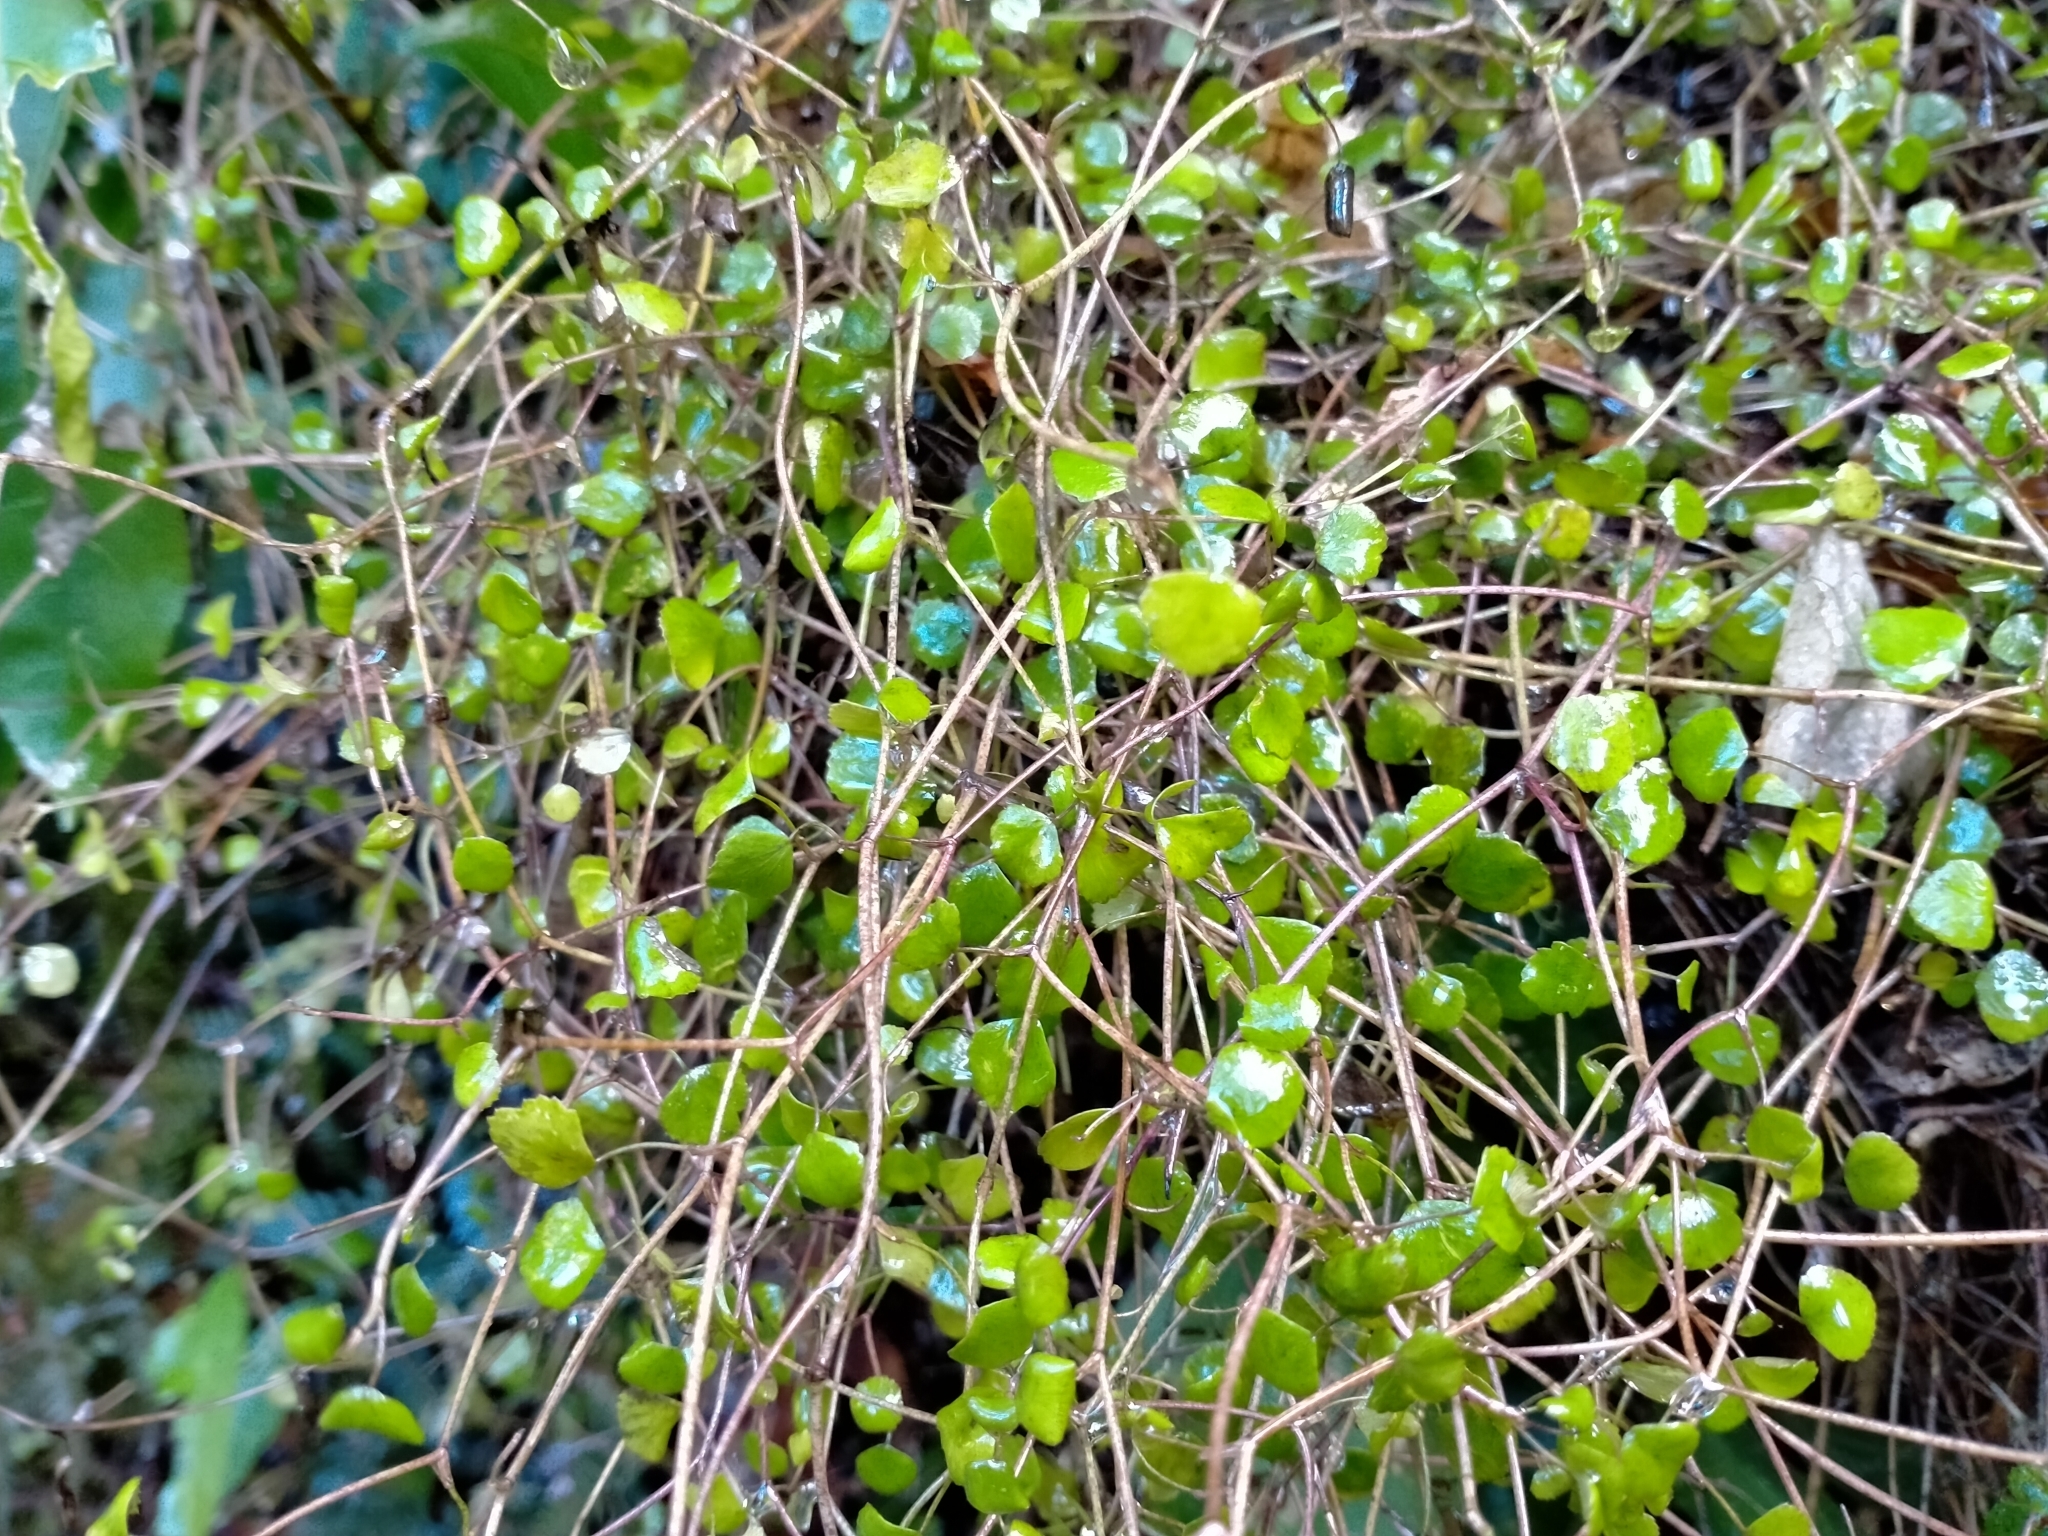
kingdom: Plantae
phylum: Tracheophyta
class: Magnoliopsida
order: Apiales
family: Apiaceae
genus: Scandia
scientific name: Scandia geniculata
